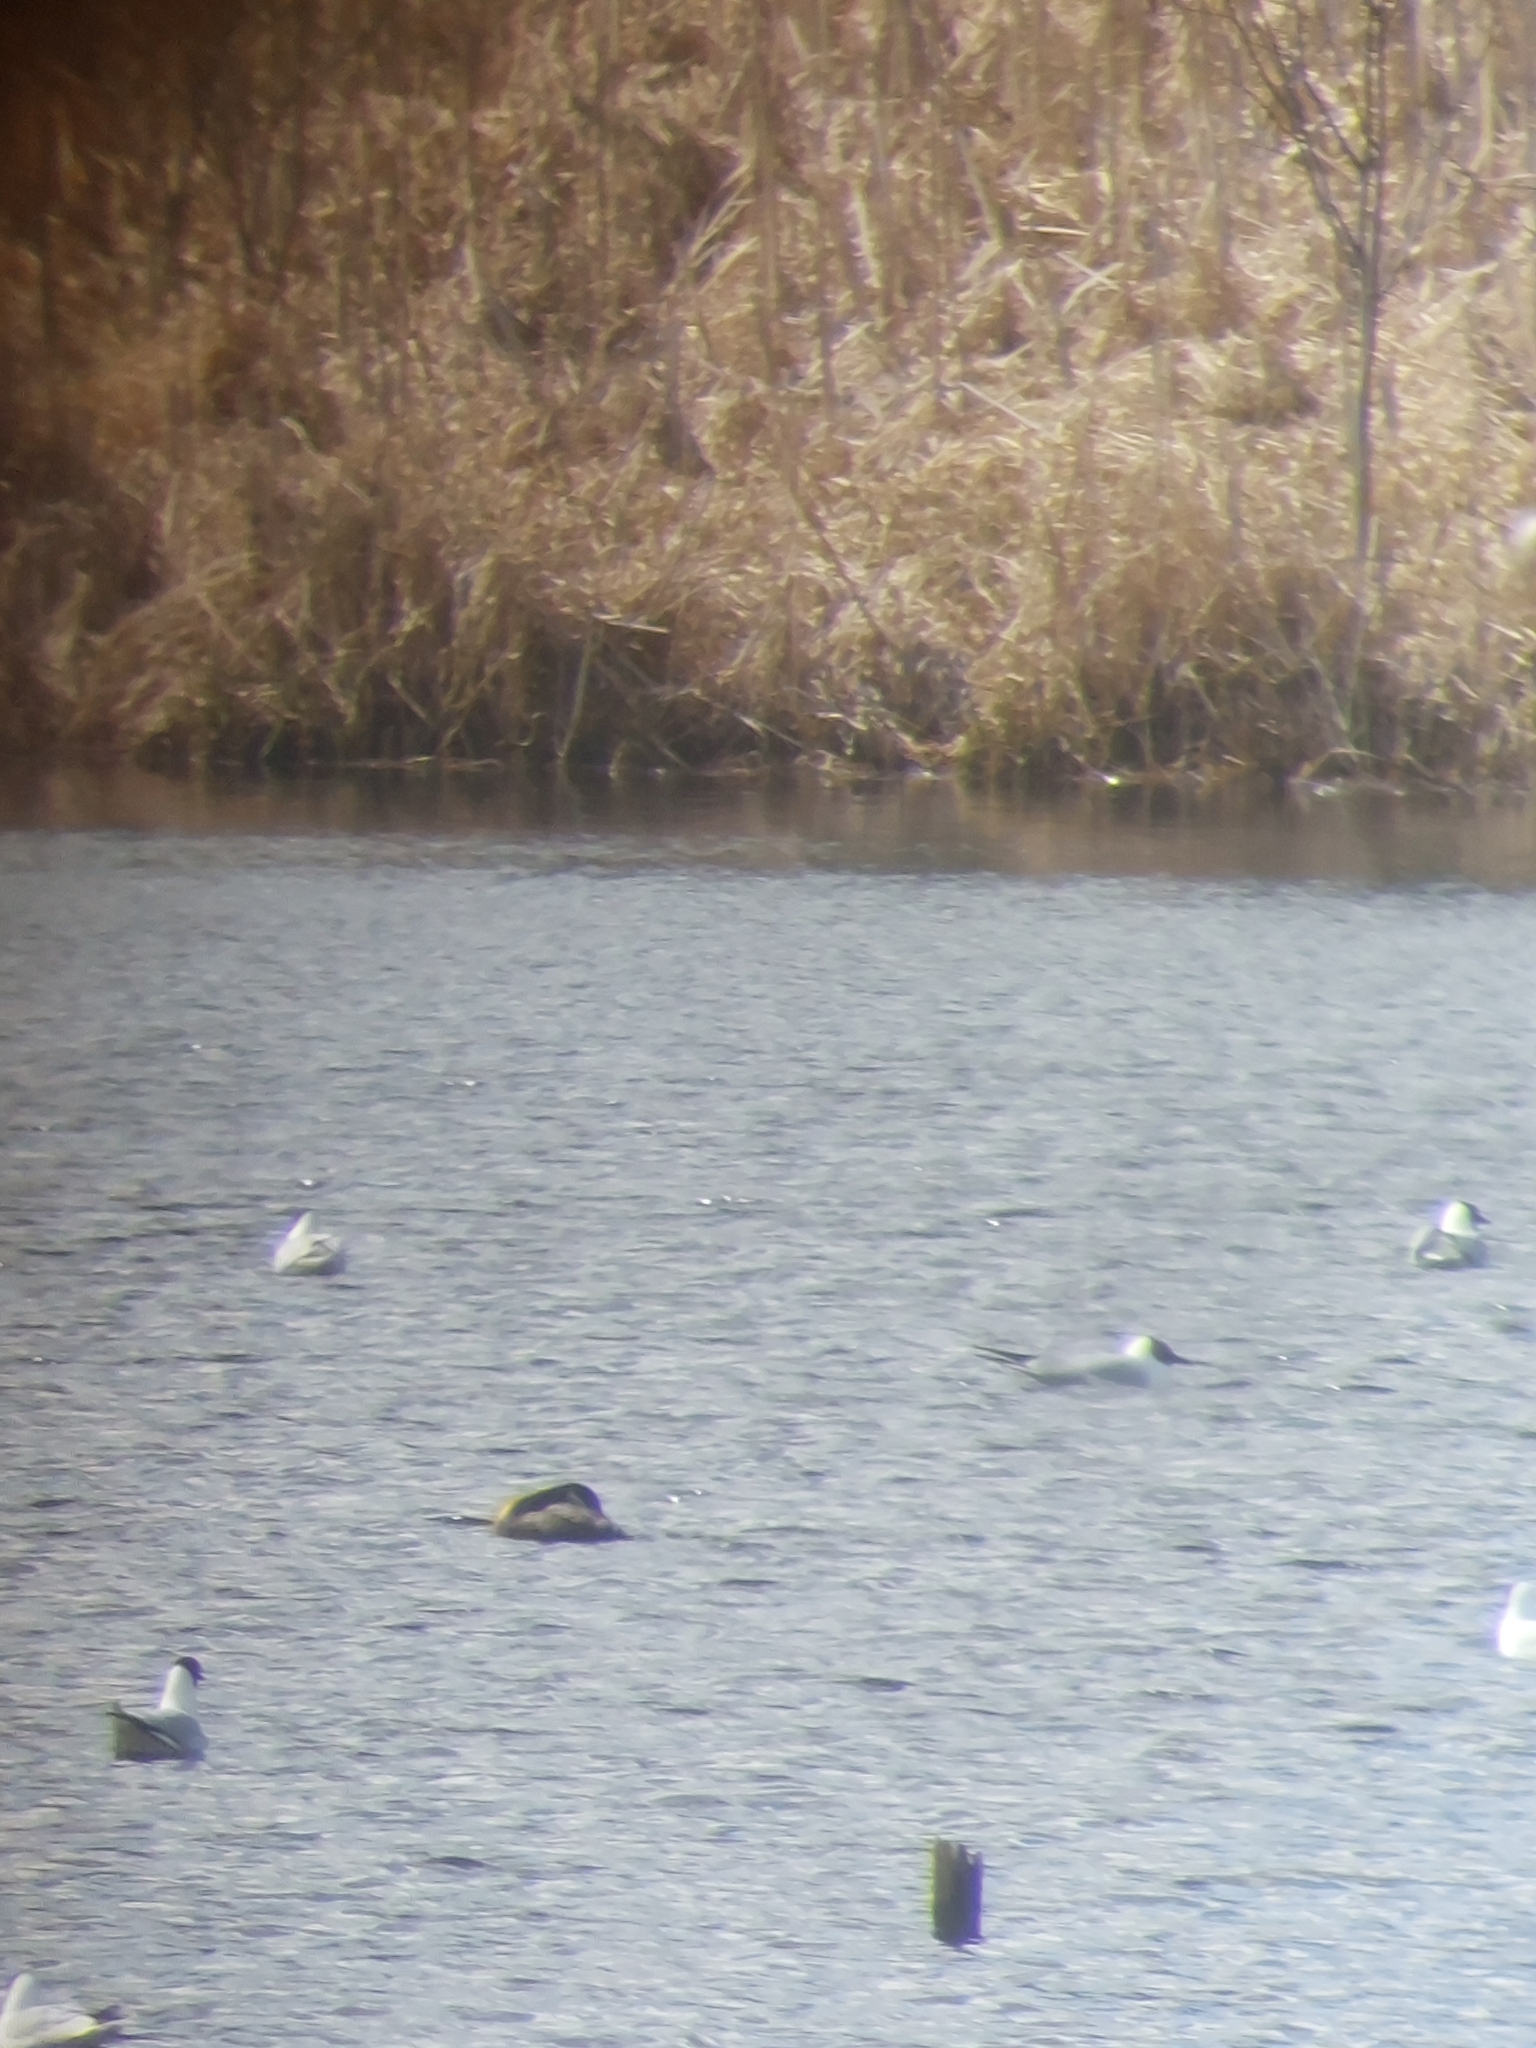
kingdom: Animalia
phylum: Chordata
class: Aves
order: Podicipediformes
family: Podicipedidae
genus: Podiceps
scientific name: Podiceps grisegena
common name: Red-necked grebe
